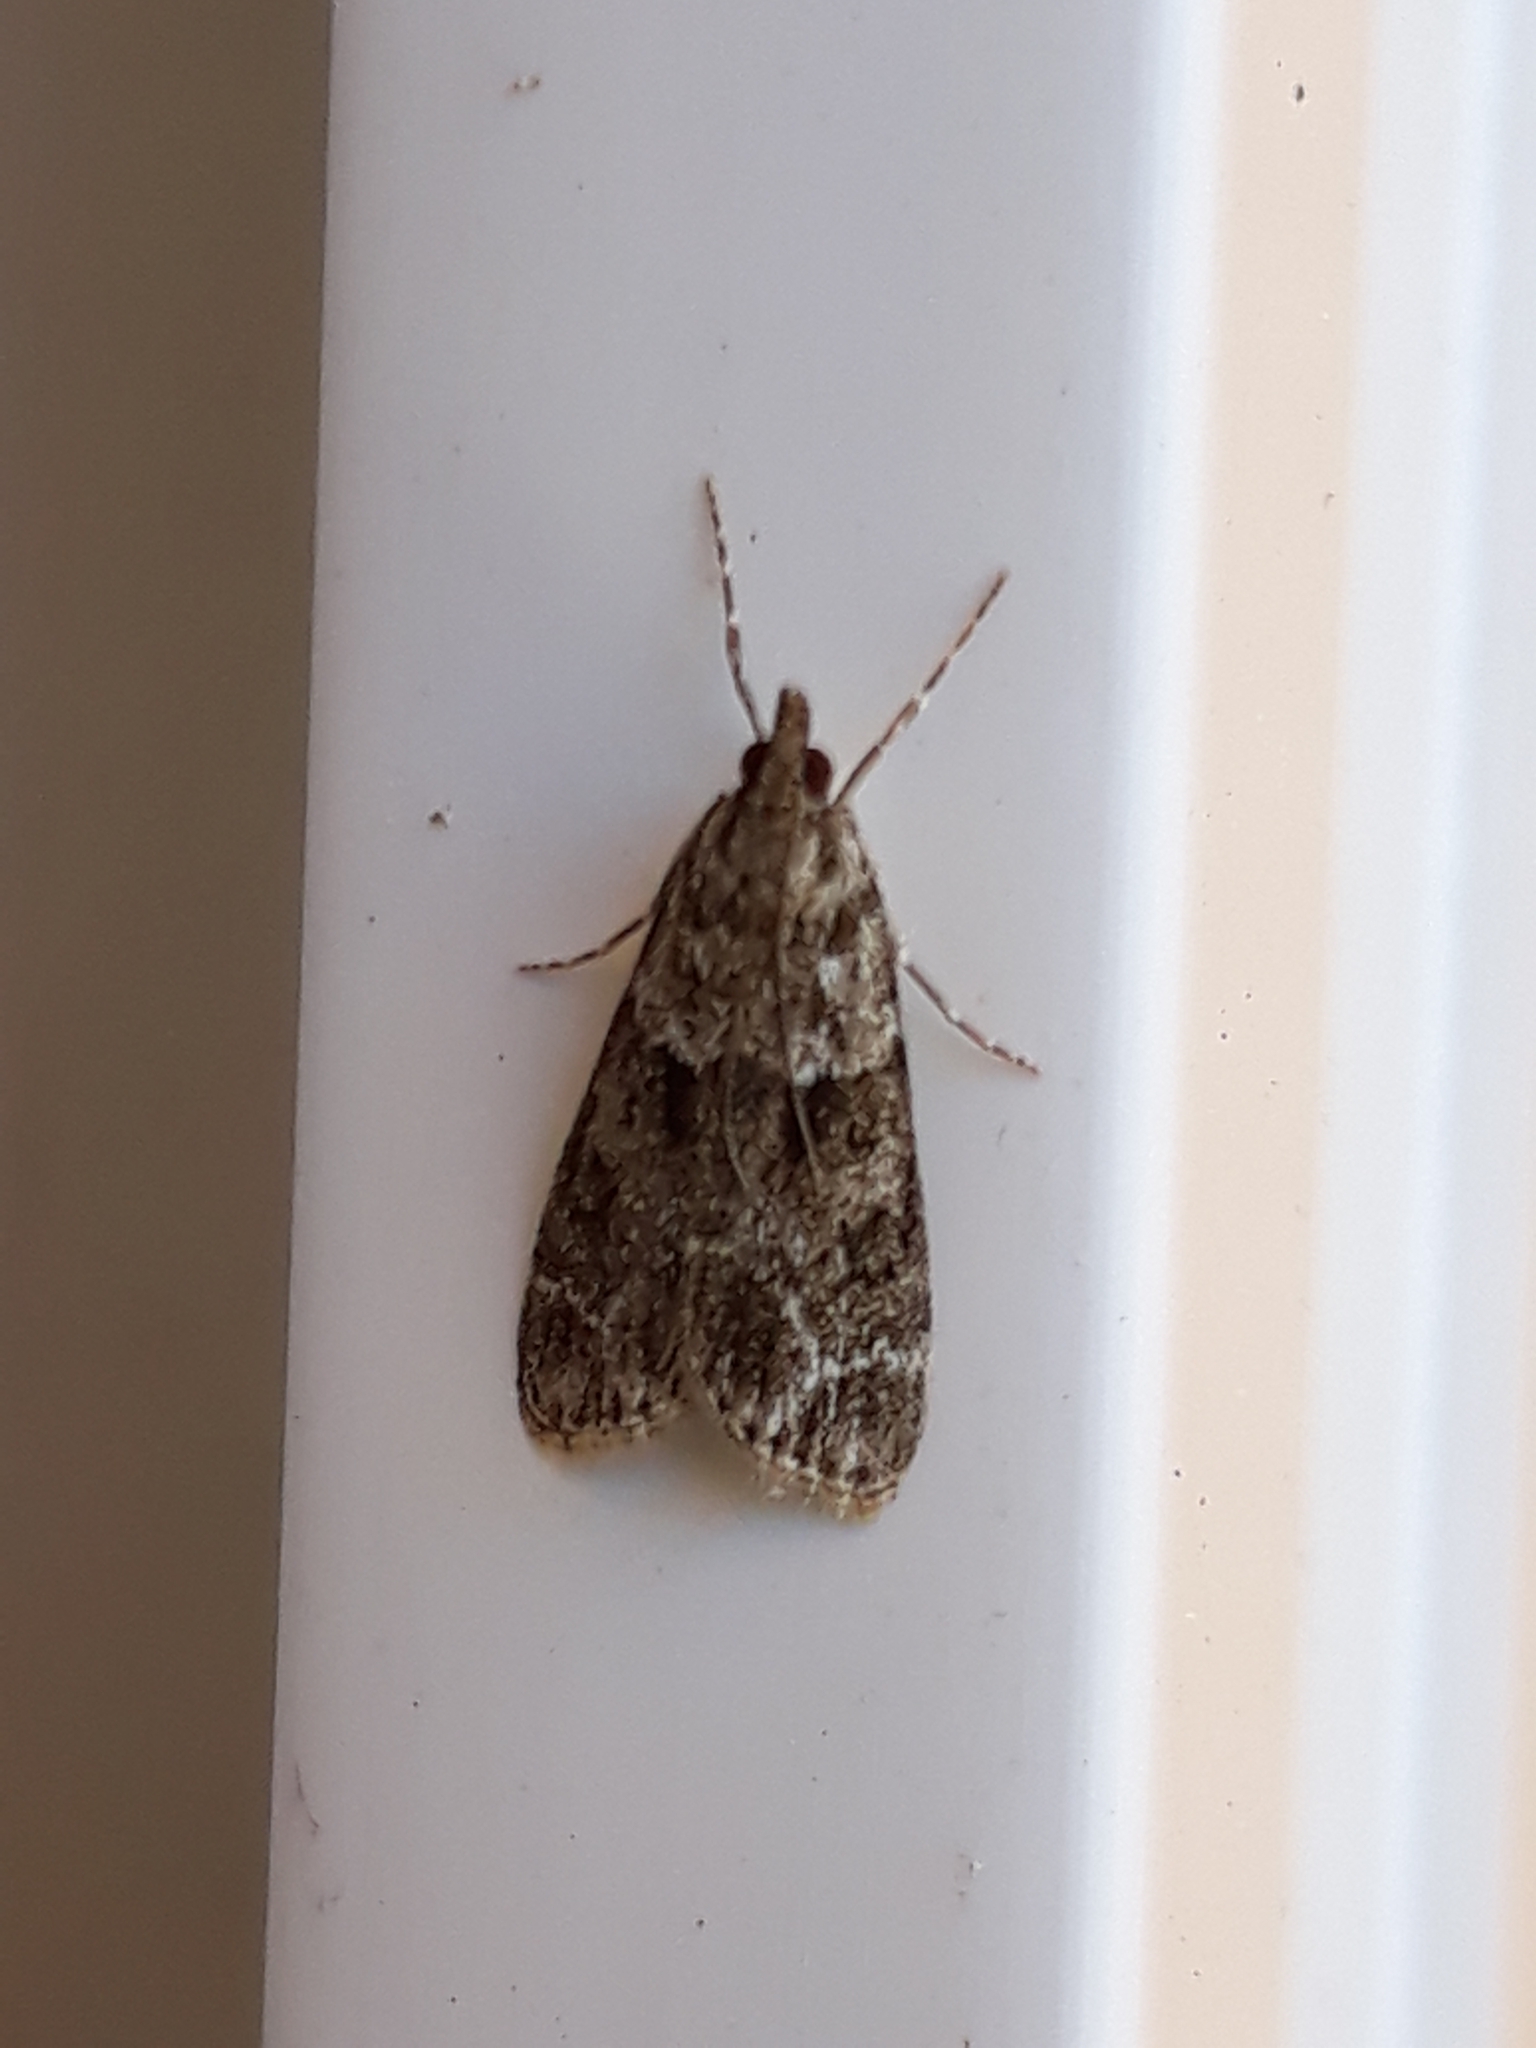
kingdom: Animalia
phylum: Arthropoda
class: Insecta
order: Lepidoptera
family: Crambidae
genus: Eudonia
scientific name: Eudonia mercurella
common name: Small grey
